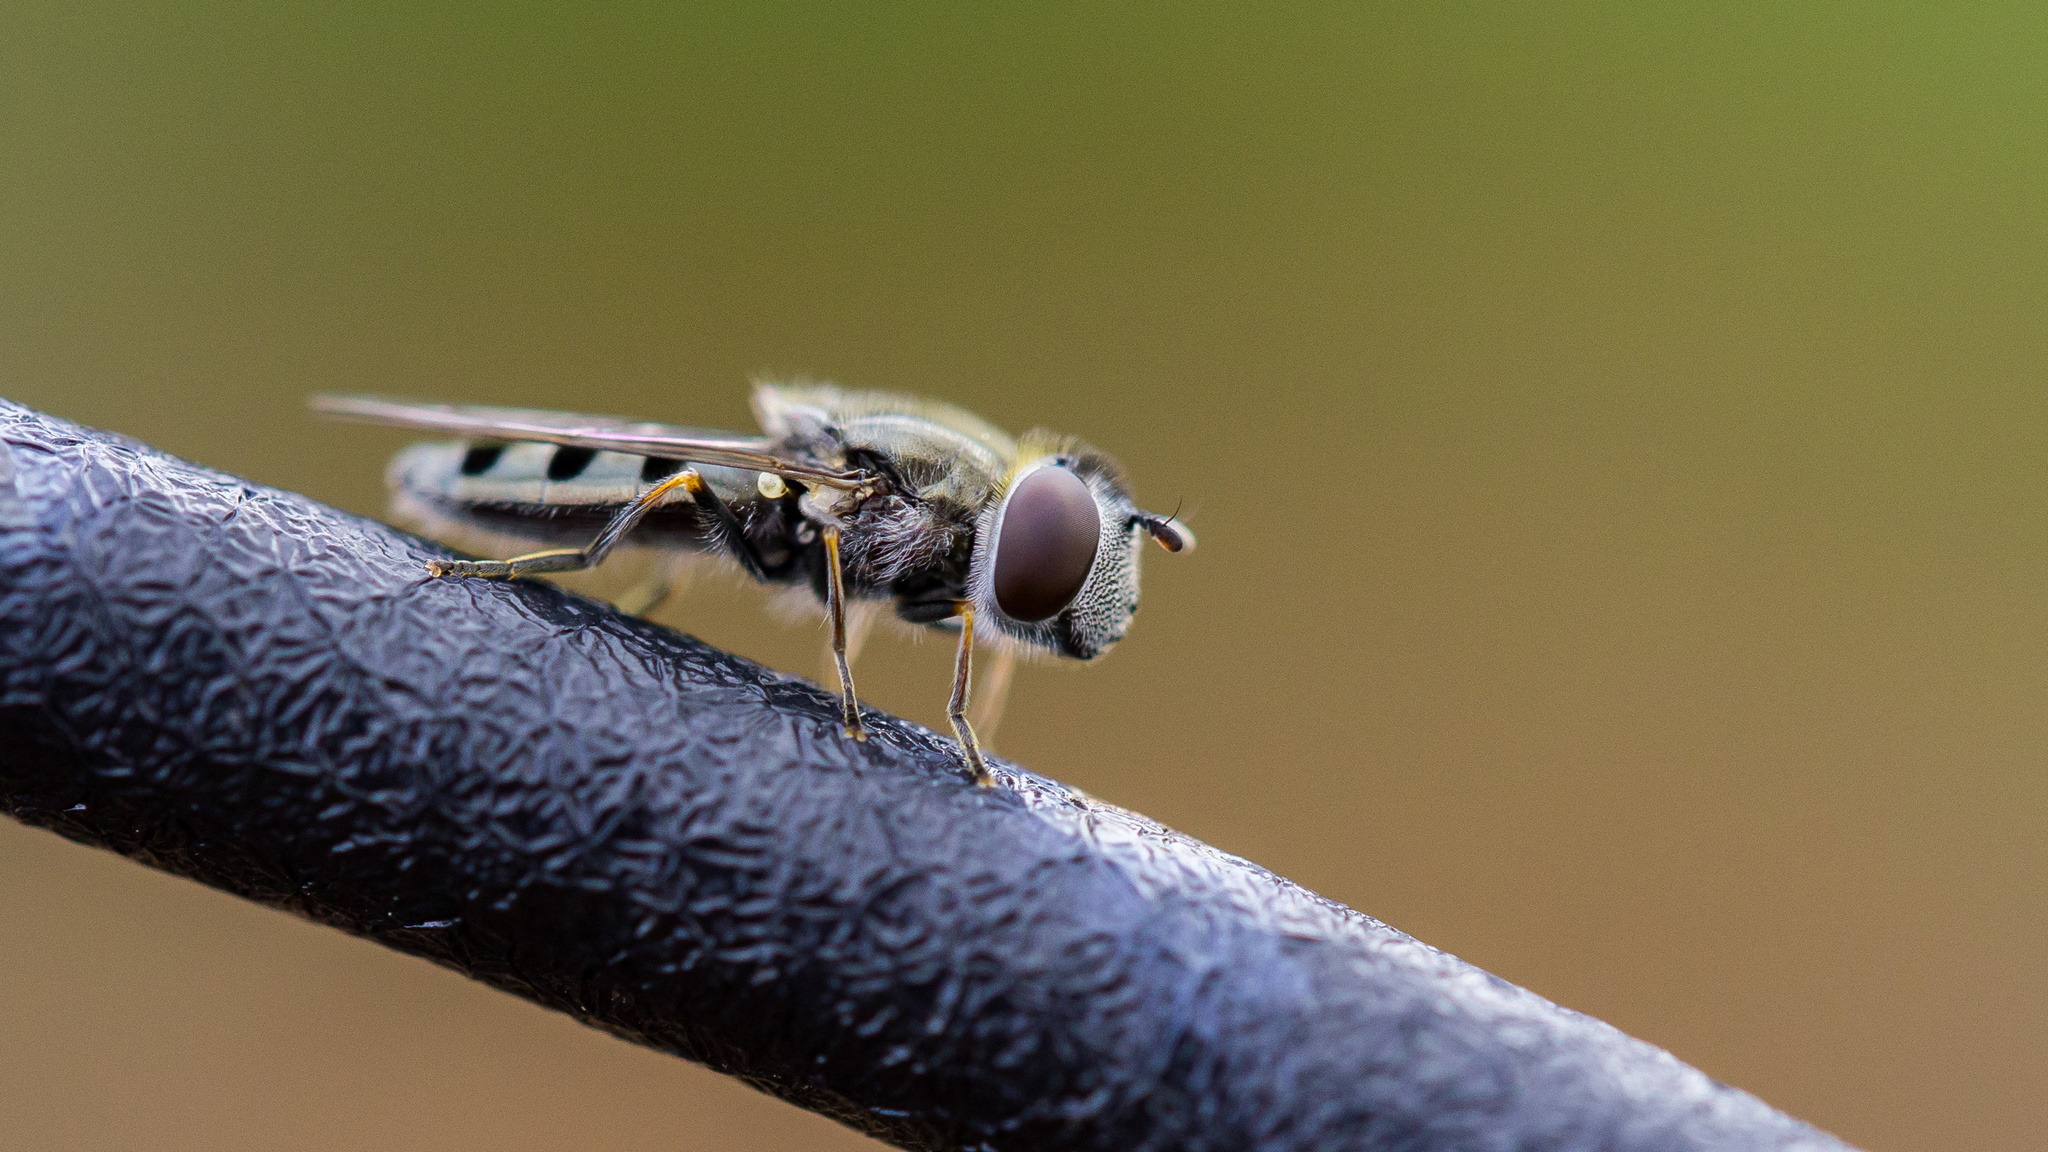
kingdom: Animalia
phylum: Arthropoda
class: Insecta
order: Diptera
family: Syrphidae
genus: Platycheirus
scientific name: Platycheirus stegnus
